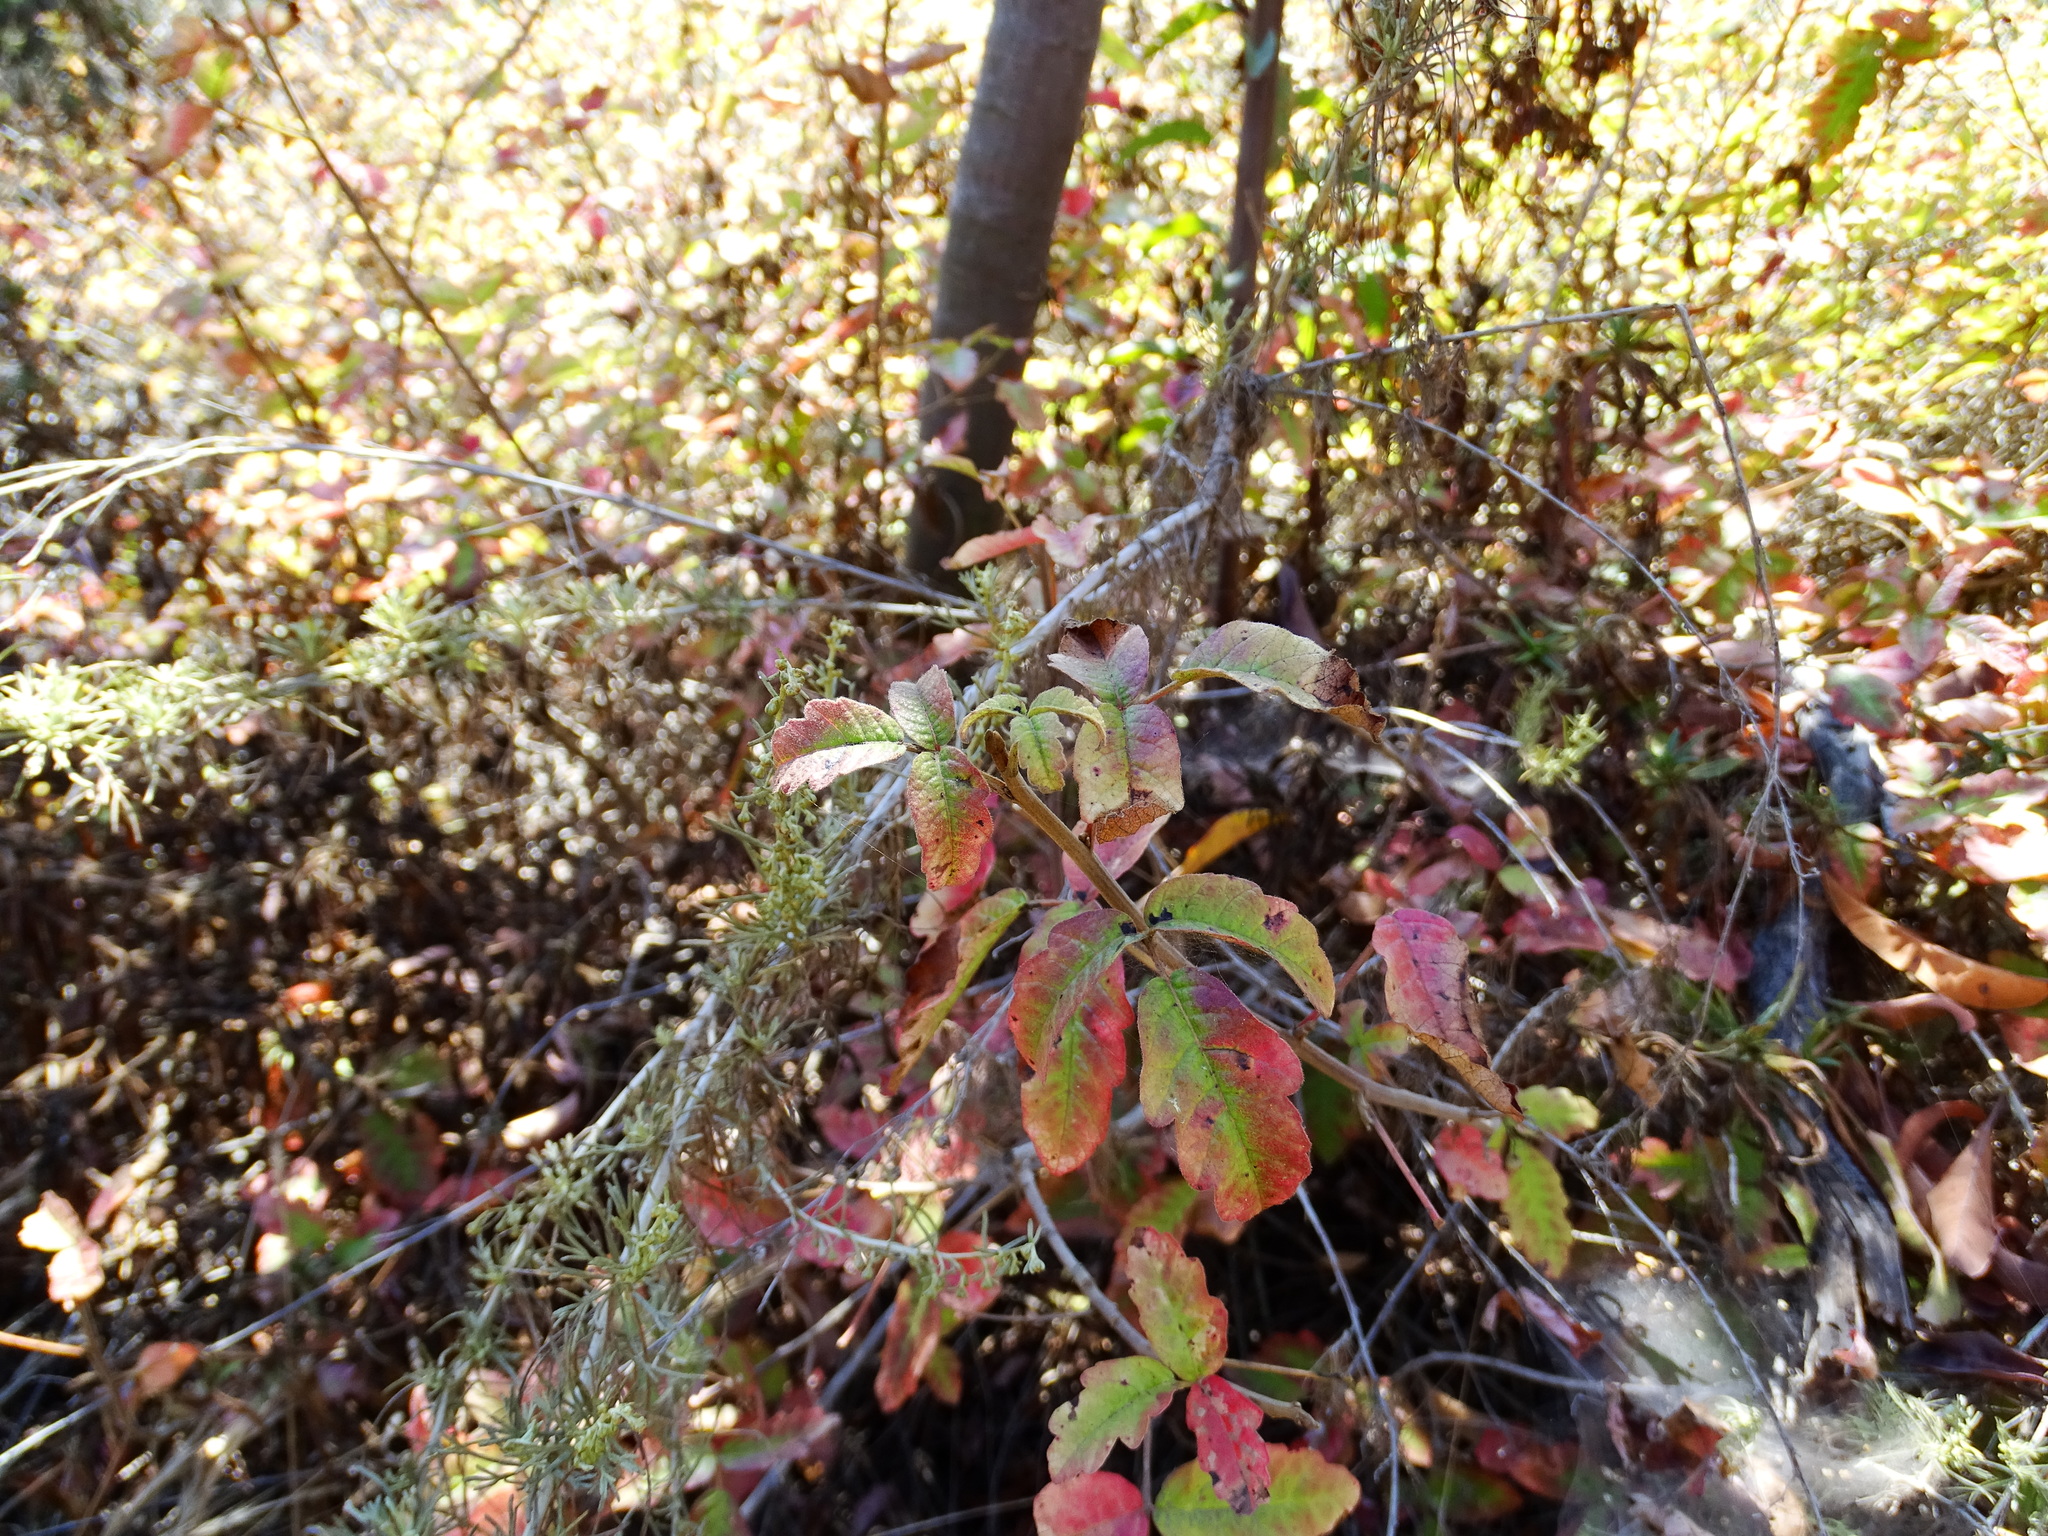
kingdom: Plantae
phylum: Tracheophyta
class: Magnoliopsida
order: Sapindales
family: Anacardiaceae
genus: Toxicodendron
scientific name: Toxicodendron diversilobum
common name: Pacific poison-oak
